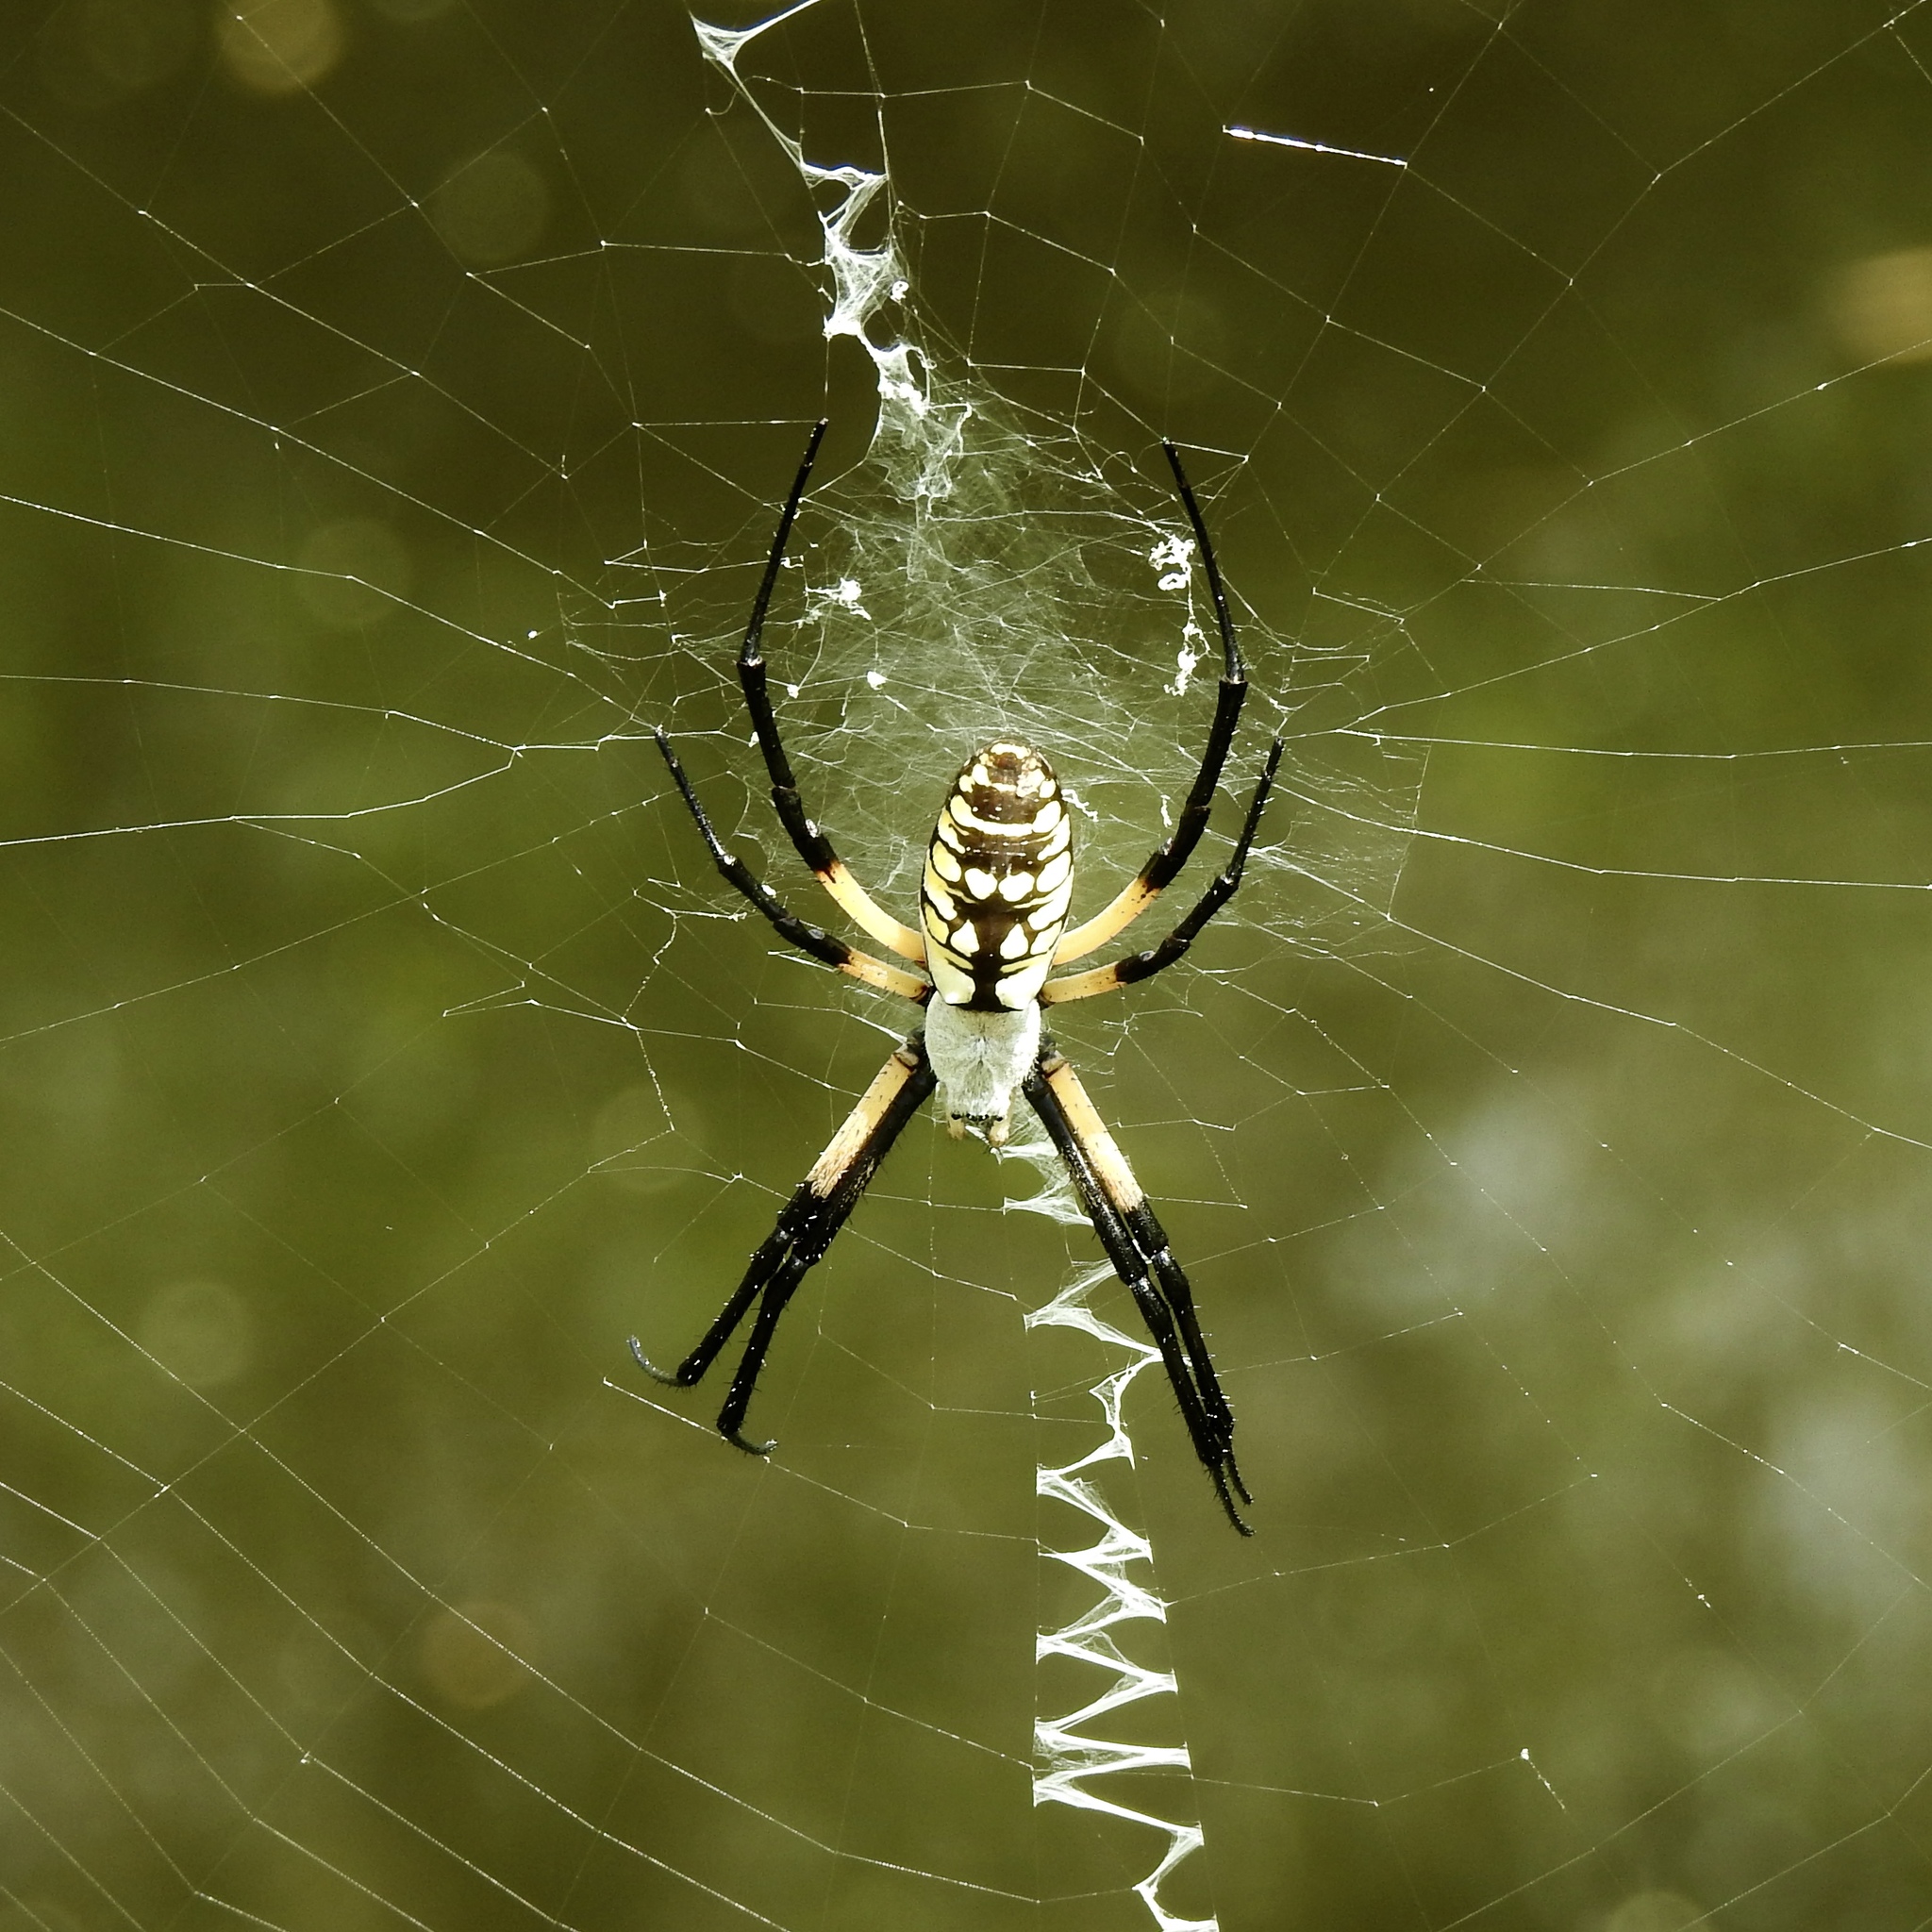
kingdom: Animalia
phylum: Arthropoda
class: Arachnida
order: Araneae
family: Araneidae
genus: Argiope
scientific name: Argiope aurantia
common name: Orb weavers
